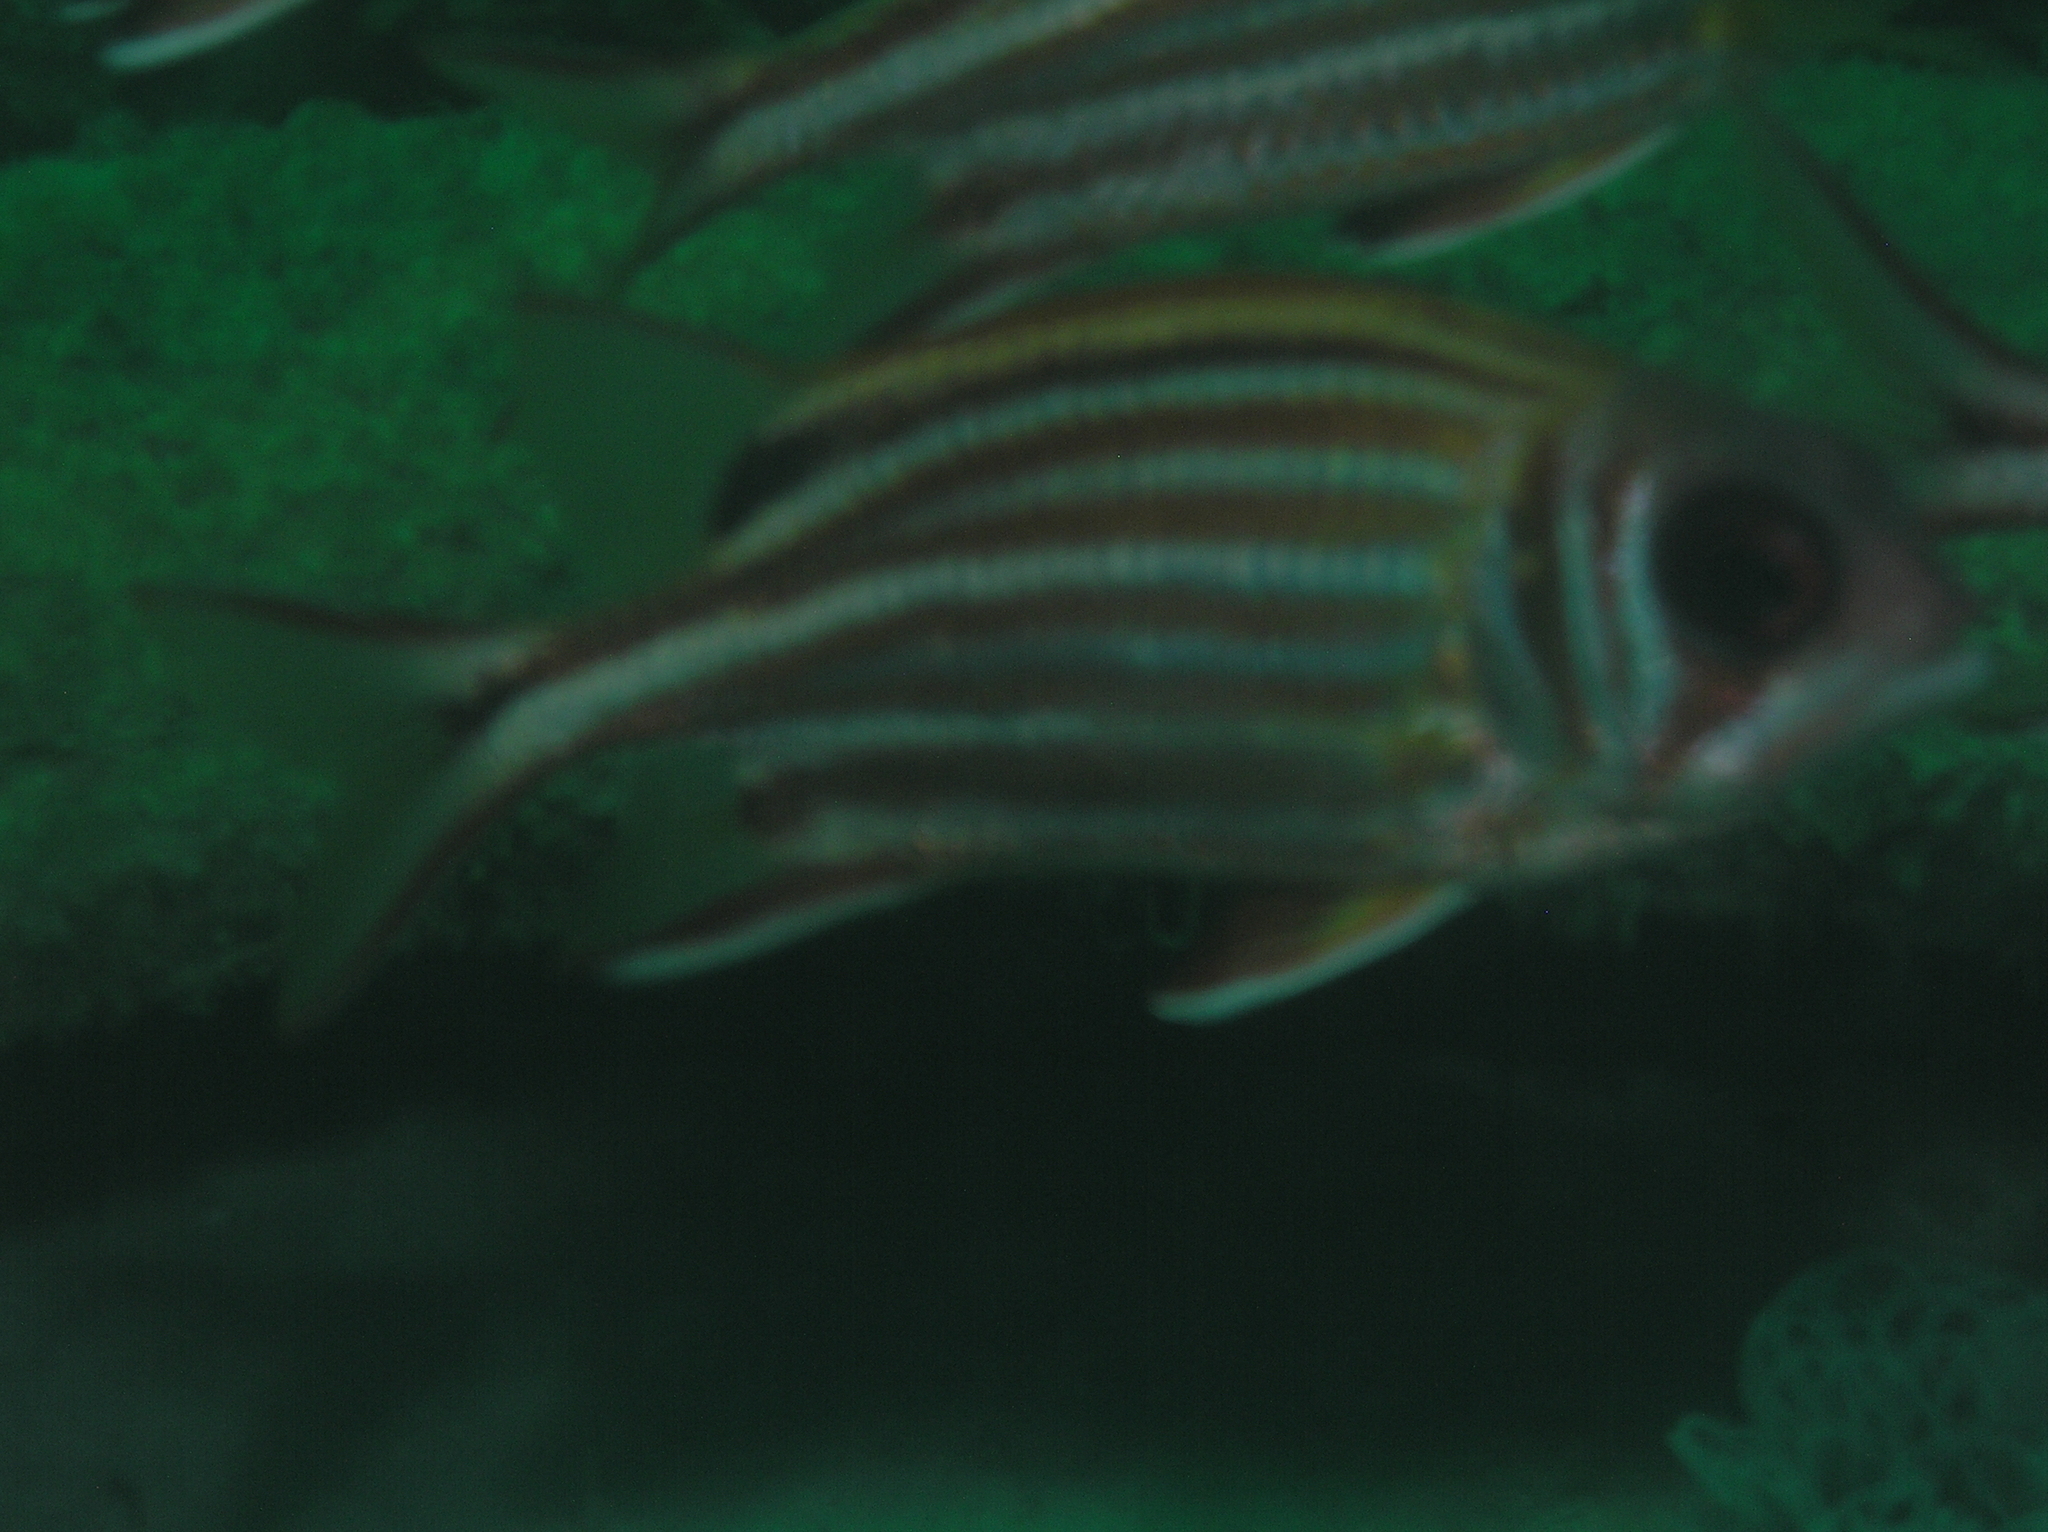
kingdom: Animalia
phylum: Chordata
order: Beryciformes
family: Holocentridae
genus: Sargocentron
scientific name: Sargocentron rubrum
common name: Redcoat
